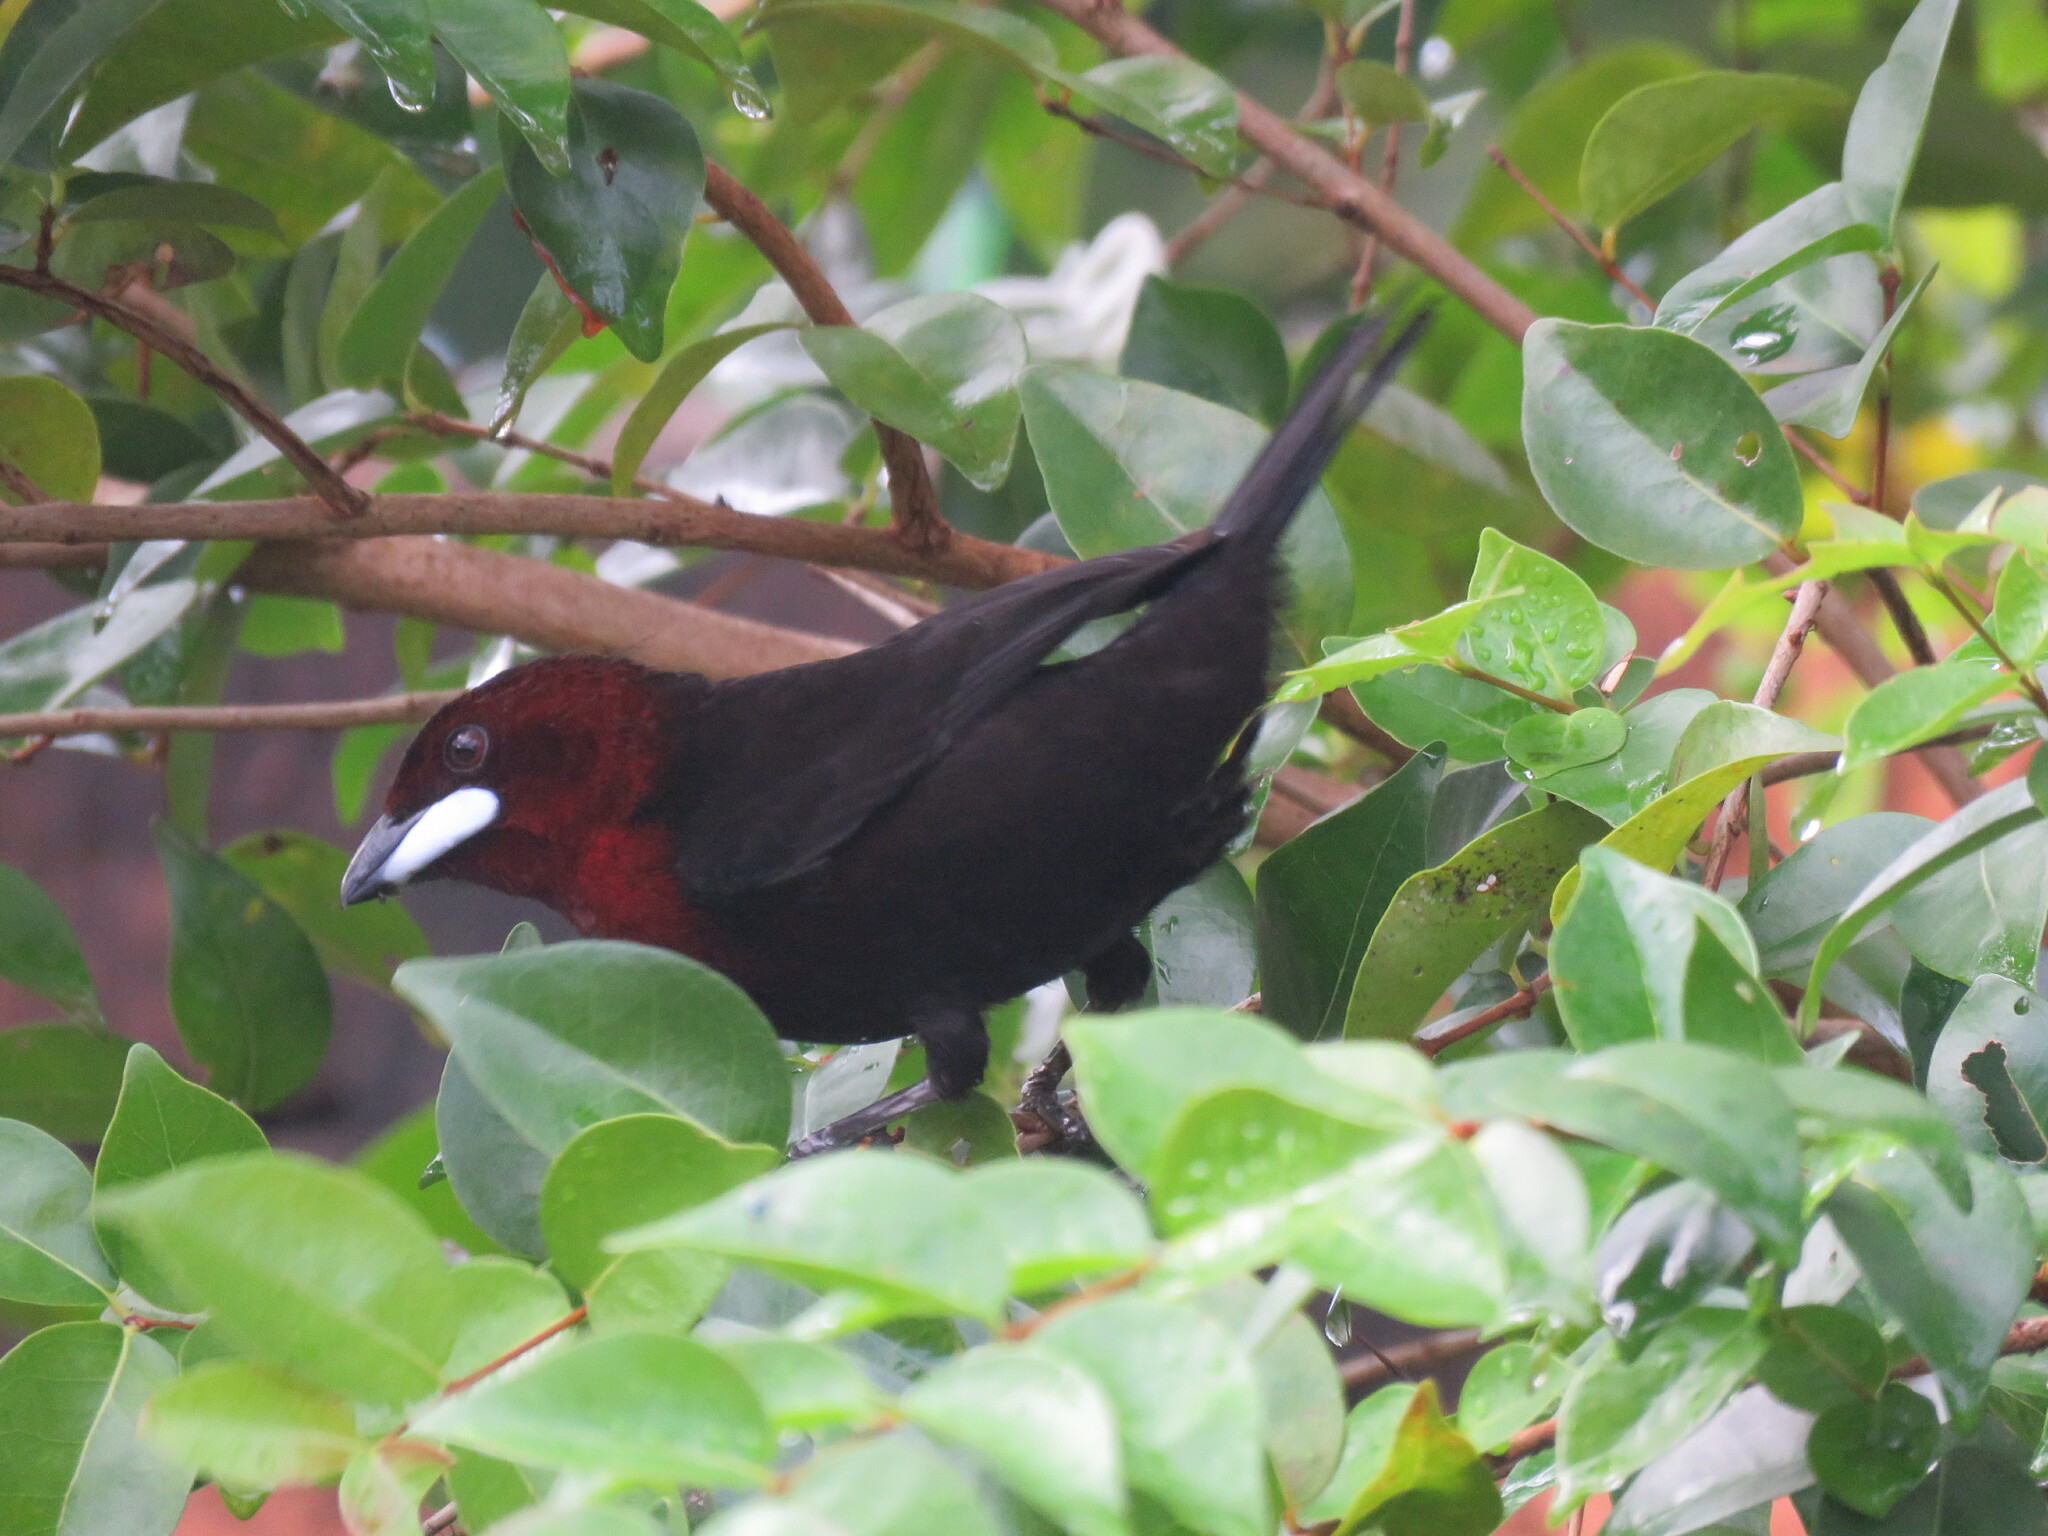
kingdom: Animalia
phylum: Chordata
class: Aves
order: Passeriformes
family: Thraupidae
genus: Ramphocelus
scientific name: Ramphocelus carbo
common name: Silver-beaked tanager
